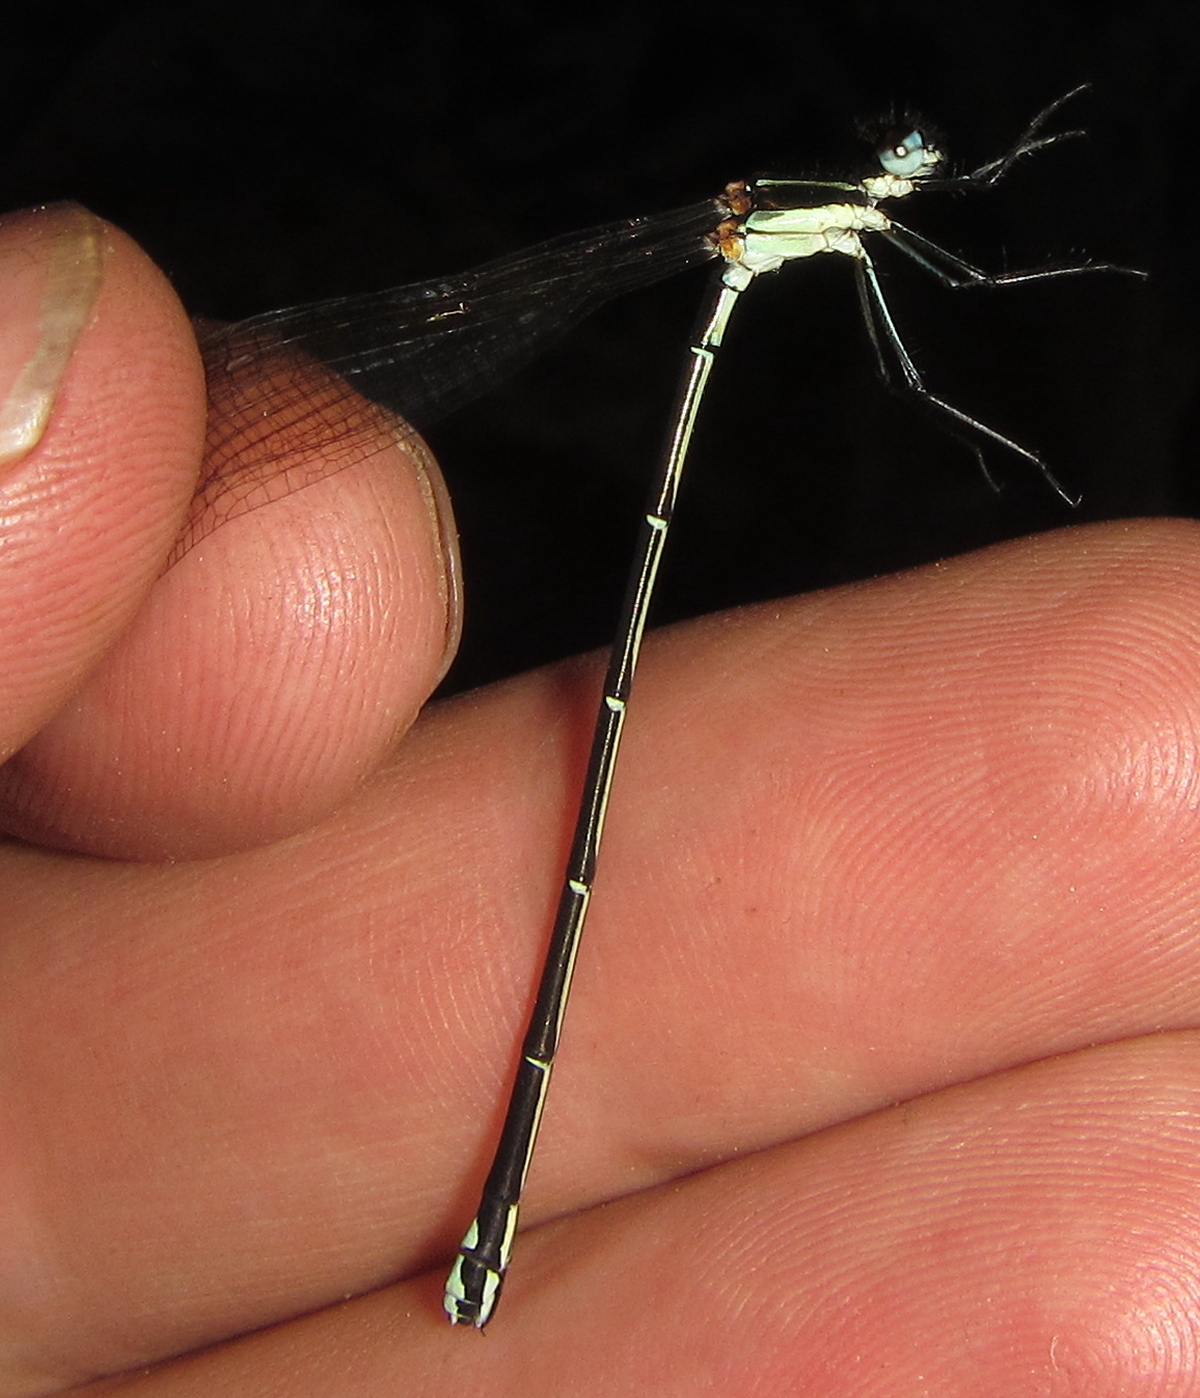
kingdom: Animalia
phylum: Arthropoda
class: Insecta
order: Odonata
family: Platycnemididae
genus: Allocnemis
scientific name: Allocnemis leucosticta
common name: Goldtail
